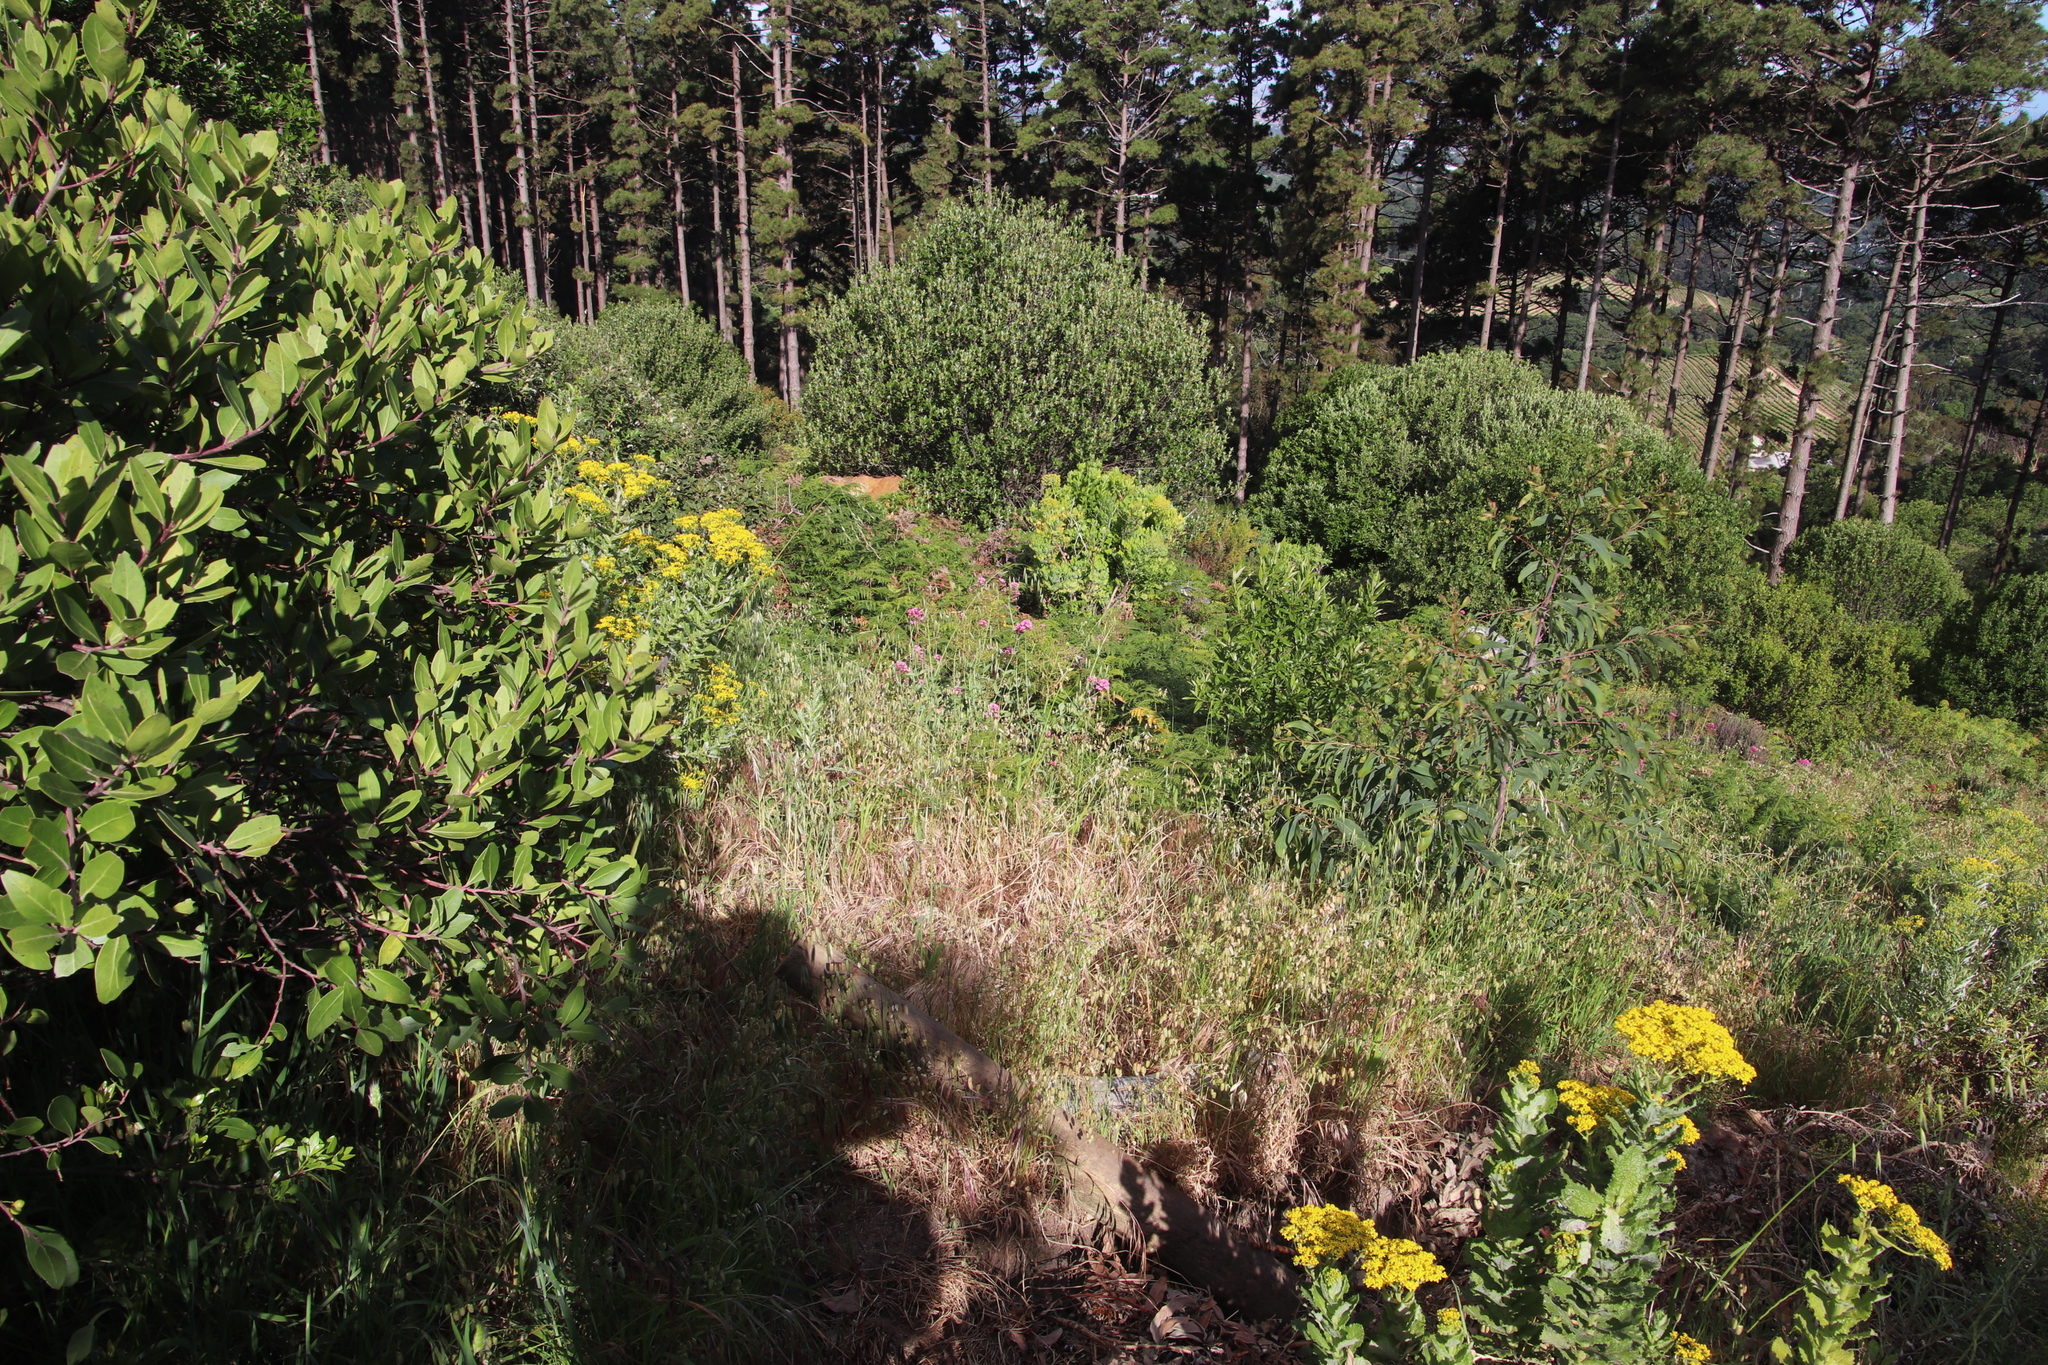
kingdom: Plantae
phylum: Tracheophyta
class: Magnoliopsida
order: Dipsacales
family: Caprifoliaceae
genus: Centranthus
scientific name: Centranthus ruber
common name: Red valerian
